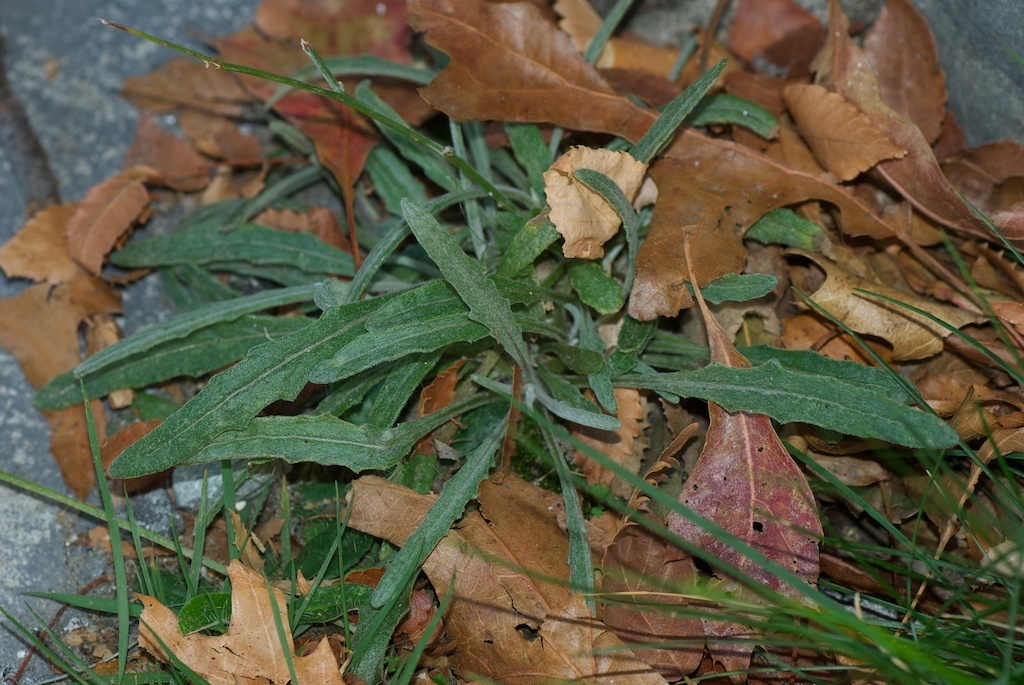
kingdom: Plantae
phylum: Tracheophyta
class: Magnoliopsida
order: Asterales
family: Asteraceae
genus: Senecio
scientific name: Senecio quadridentatus
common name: Cotton fireweed
